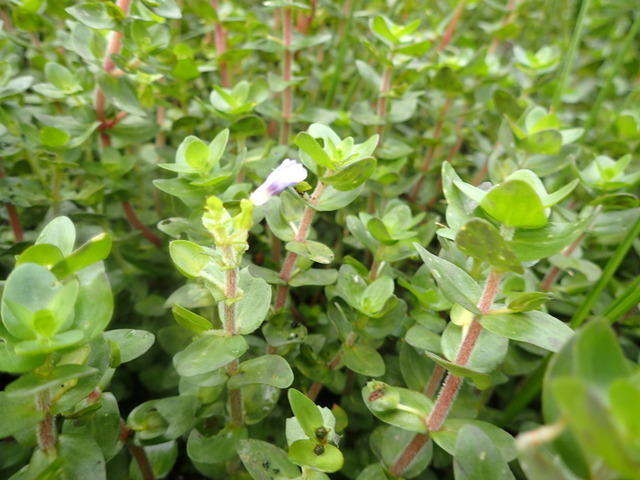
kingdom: Plantae
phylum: Tracheophyta
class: Magnoliopsida
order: Lamiales
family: Plantaginaceae
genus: Bacopa
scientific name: Bacopa caroliniana
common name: Lemon bacopa
